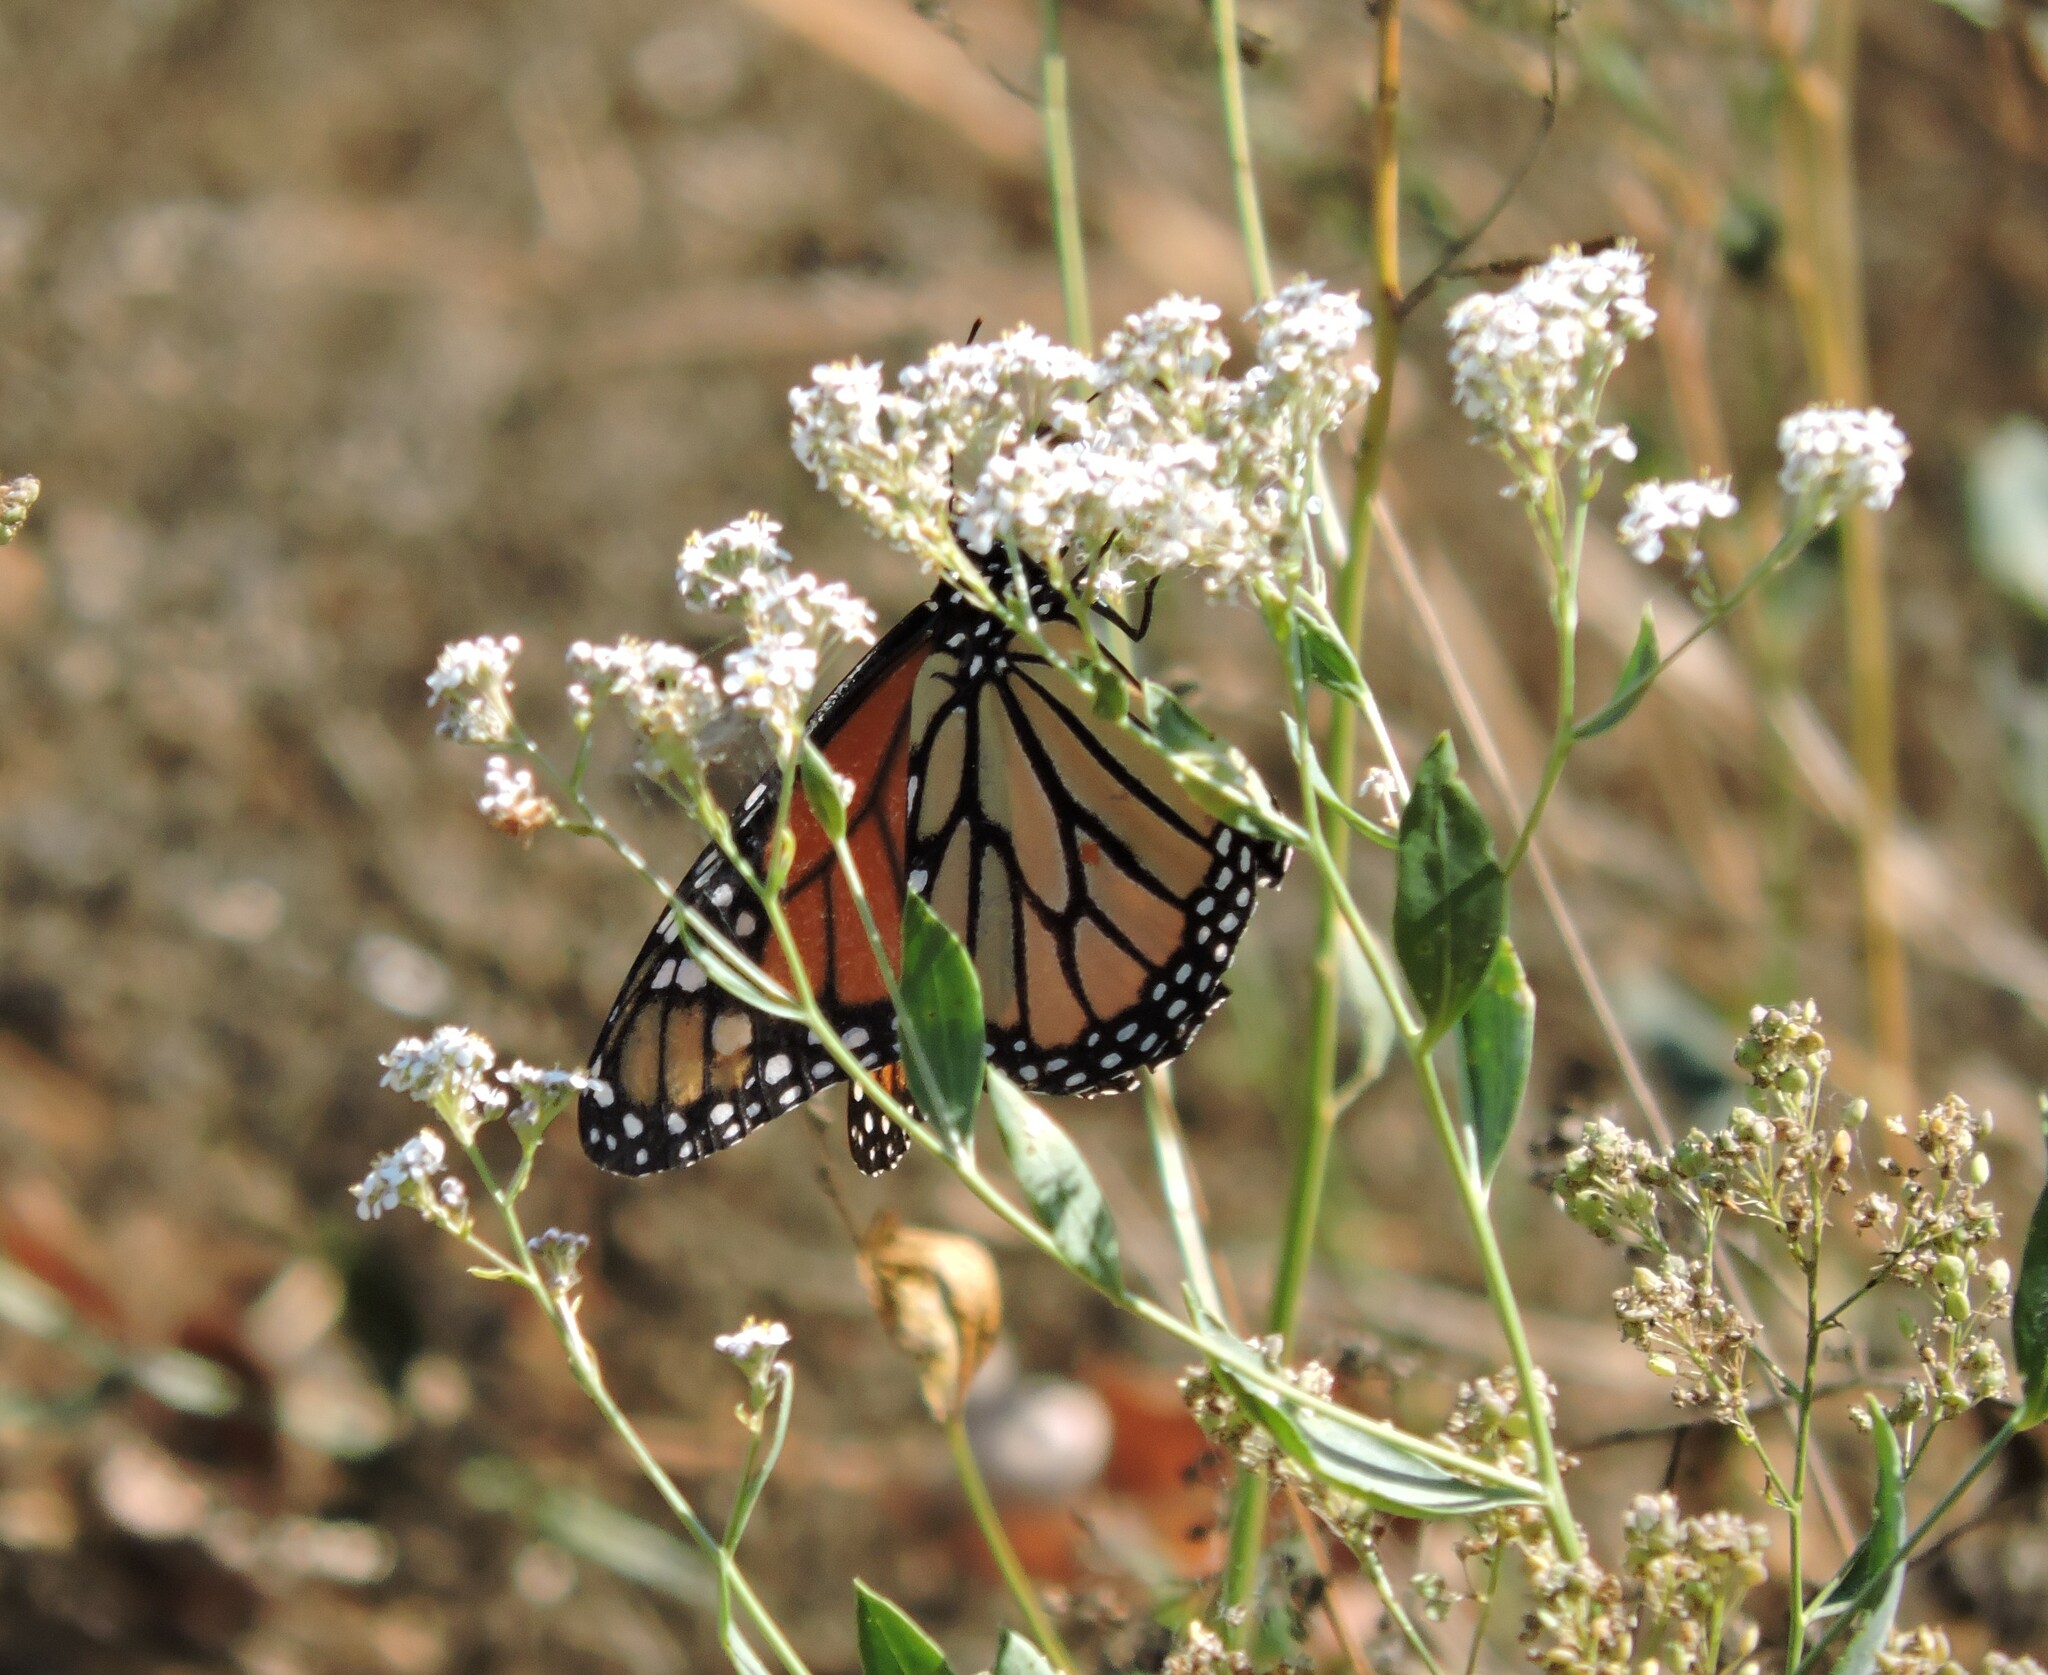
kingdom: Animalia
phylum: Arthropoda
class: Insecta
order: Lepidoptera
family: Nymphalidae
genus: Danaus
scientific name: Danaus plexippus
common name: Monarch
